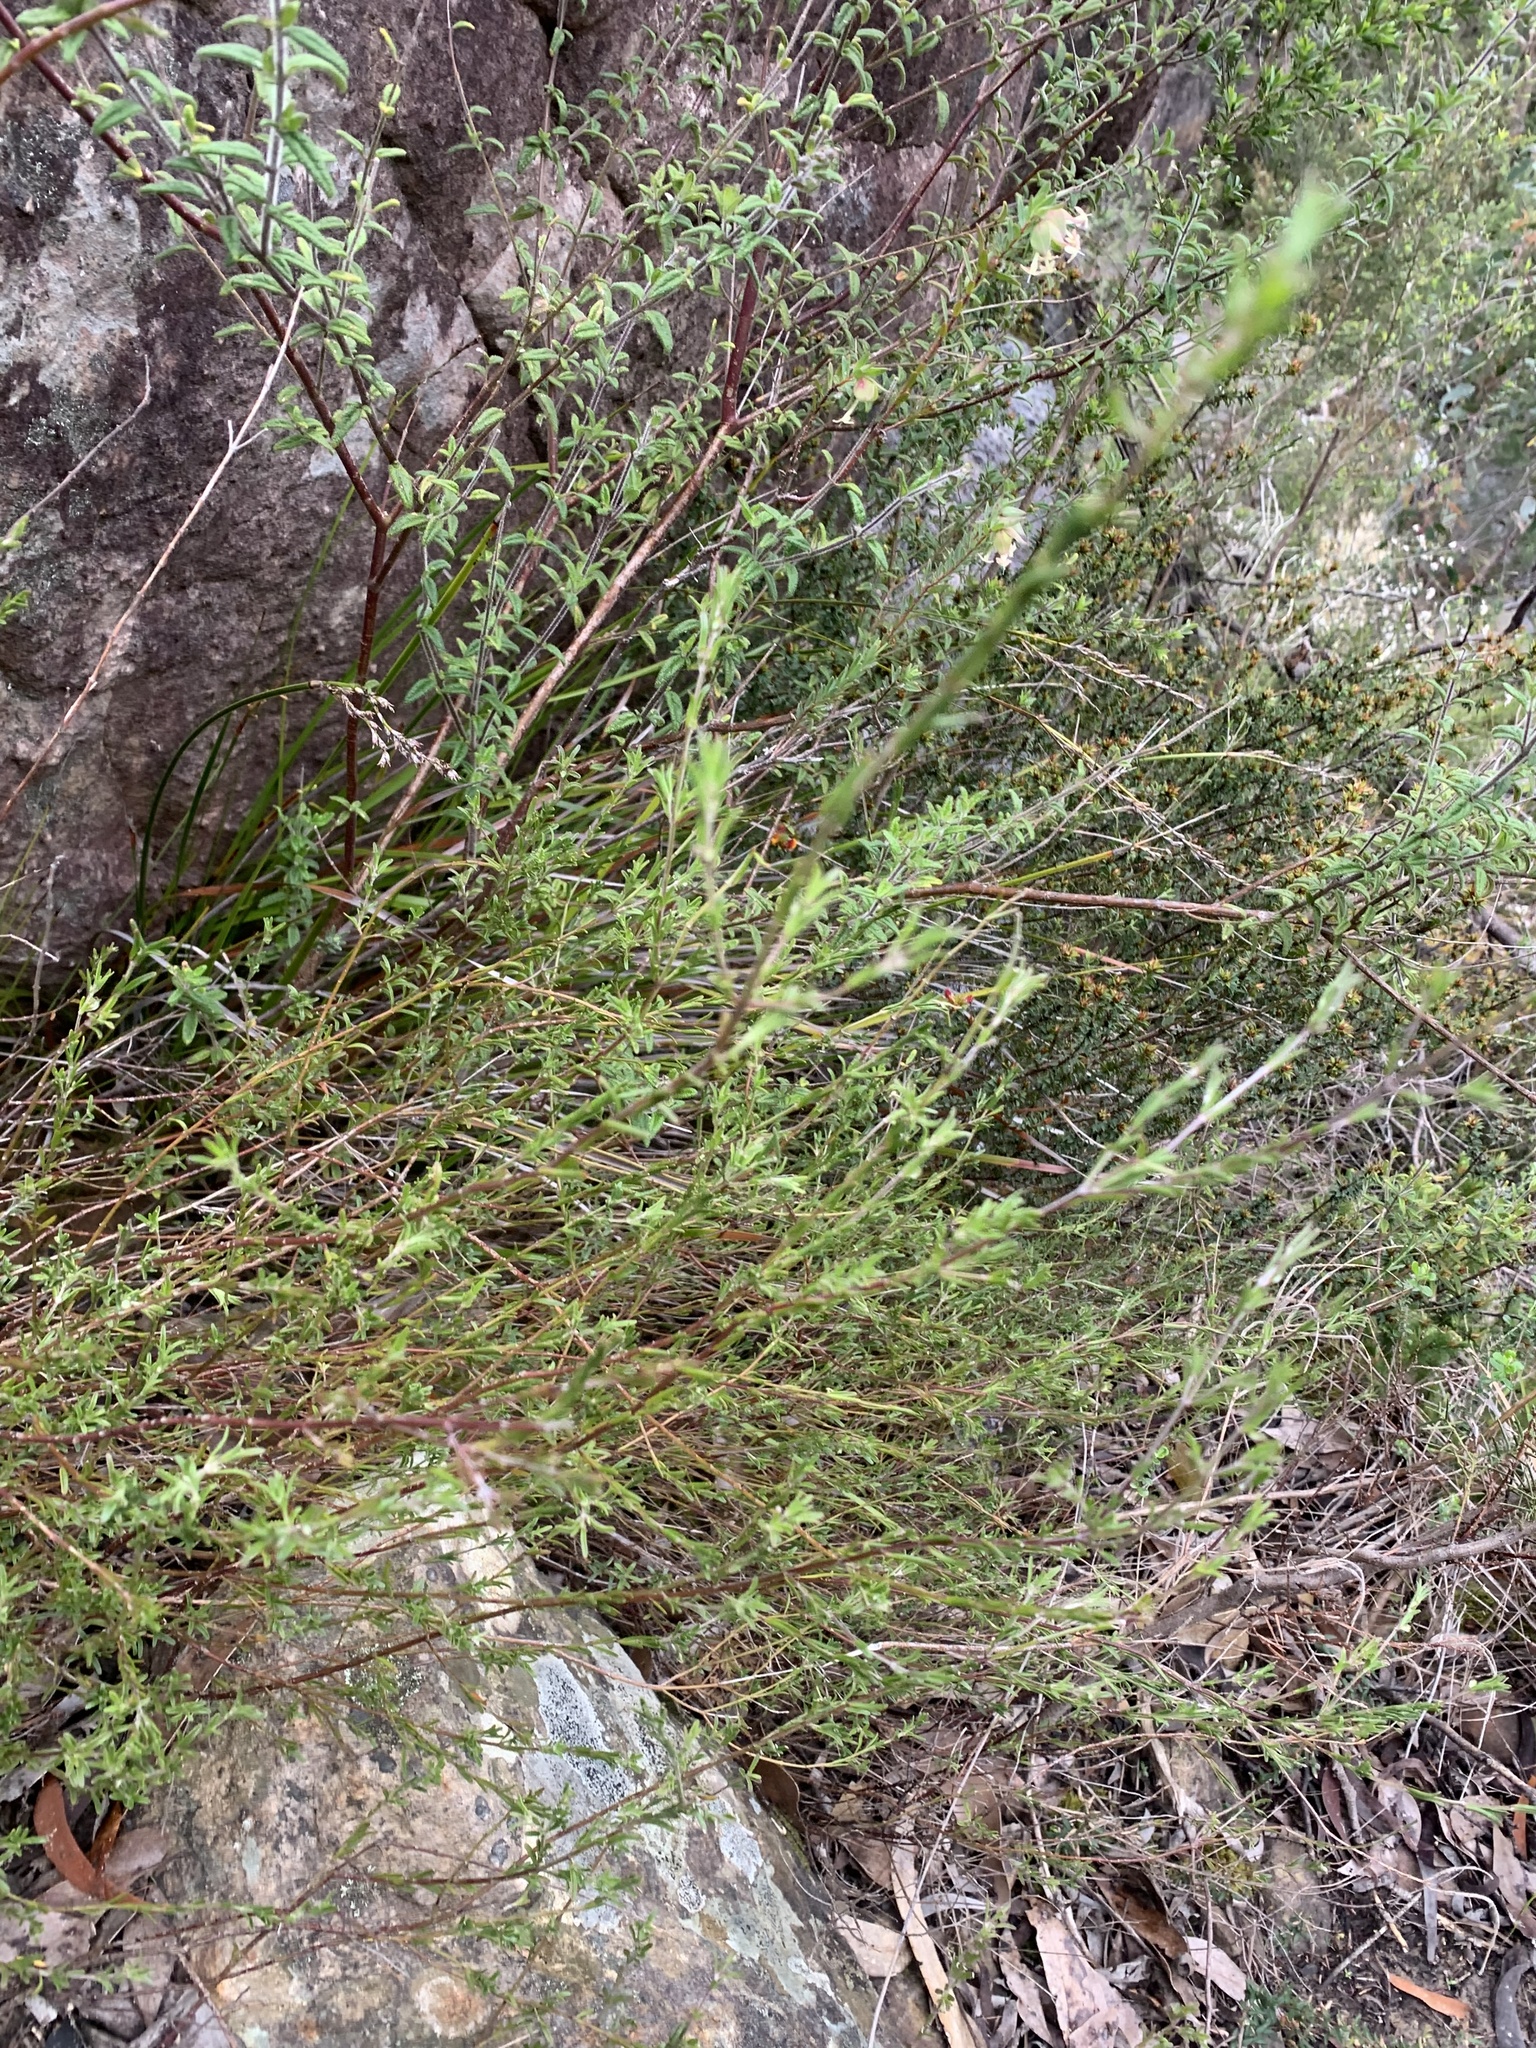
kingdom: Plantae
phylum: Tracheophyta
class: Magnoliopsida
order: Lamiales
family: Lamiaceae
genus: Prostanthera
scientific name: Prostanthera saxicola
